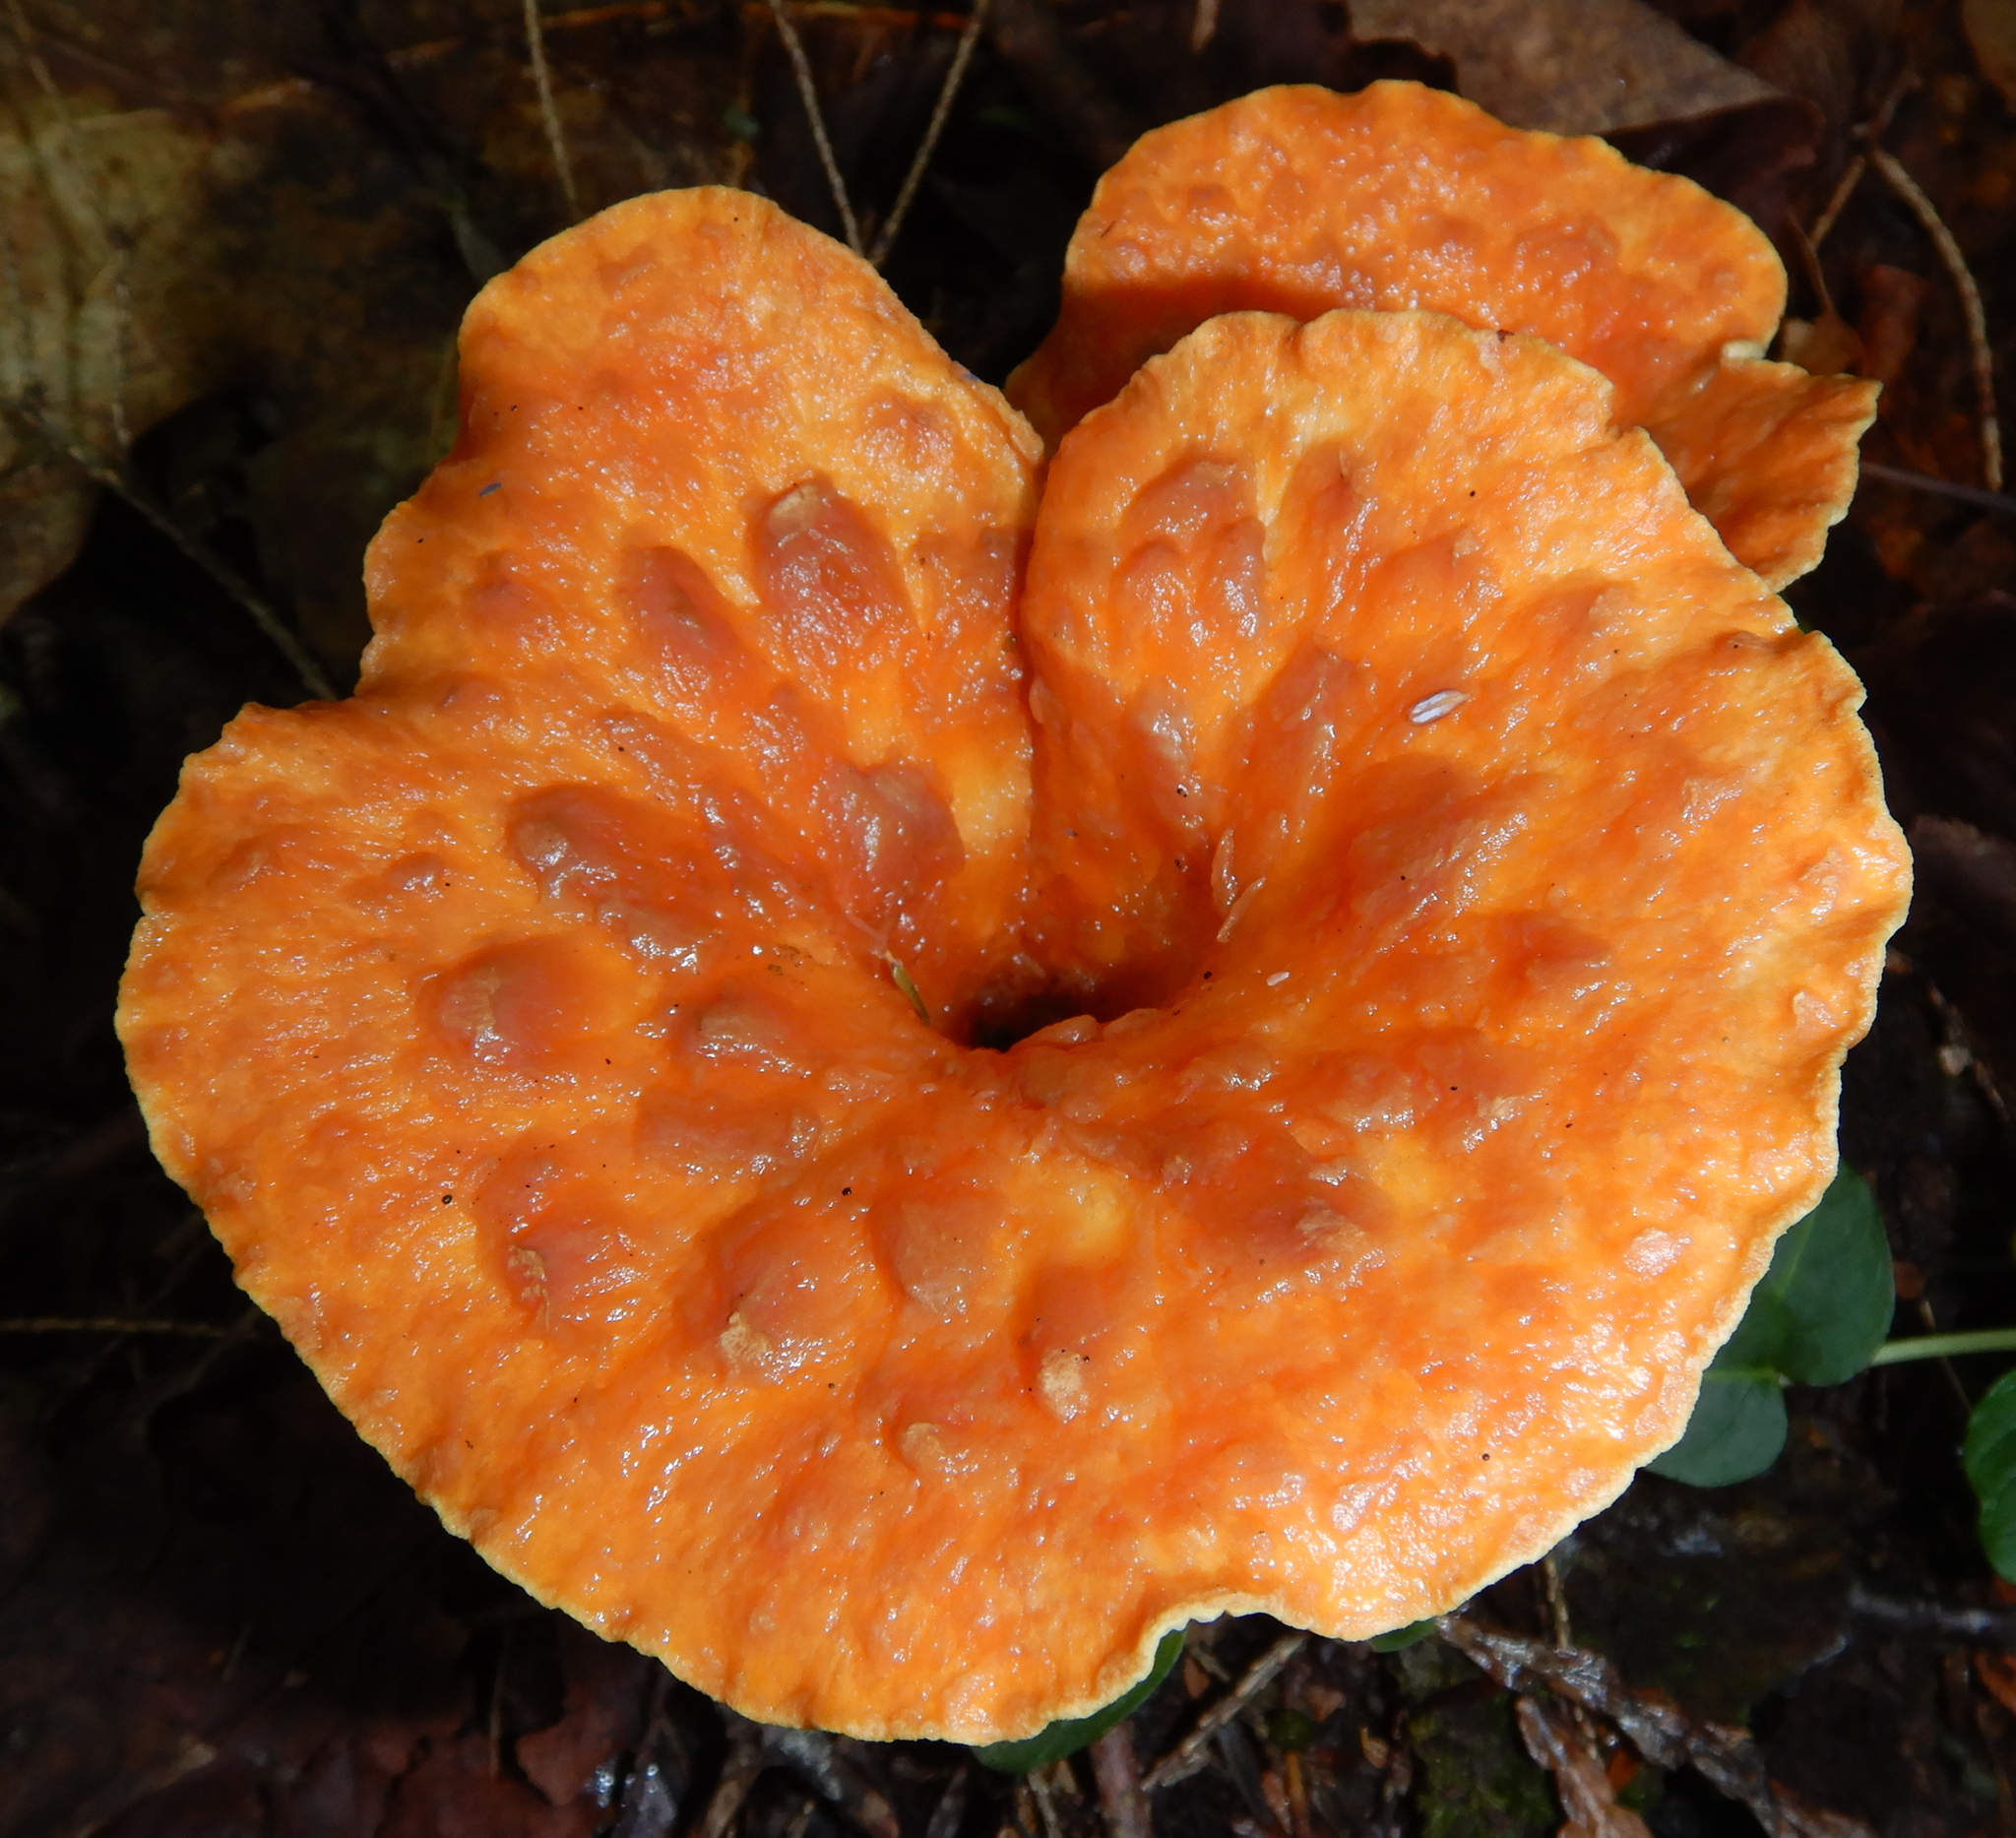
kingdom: Fungi
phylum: Basidiomycota
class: Agaricomycetes
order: Gomphales
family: Gomphaceae
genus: Turbinellus
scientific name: Turbinellus floccosus
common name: Scaly chanterelle
